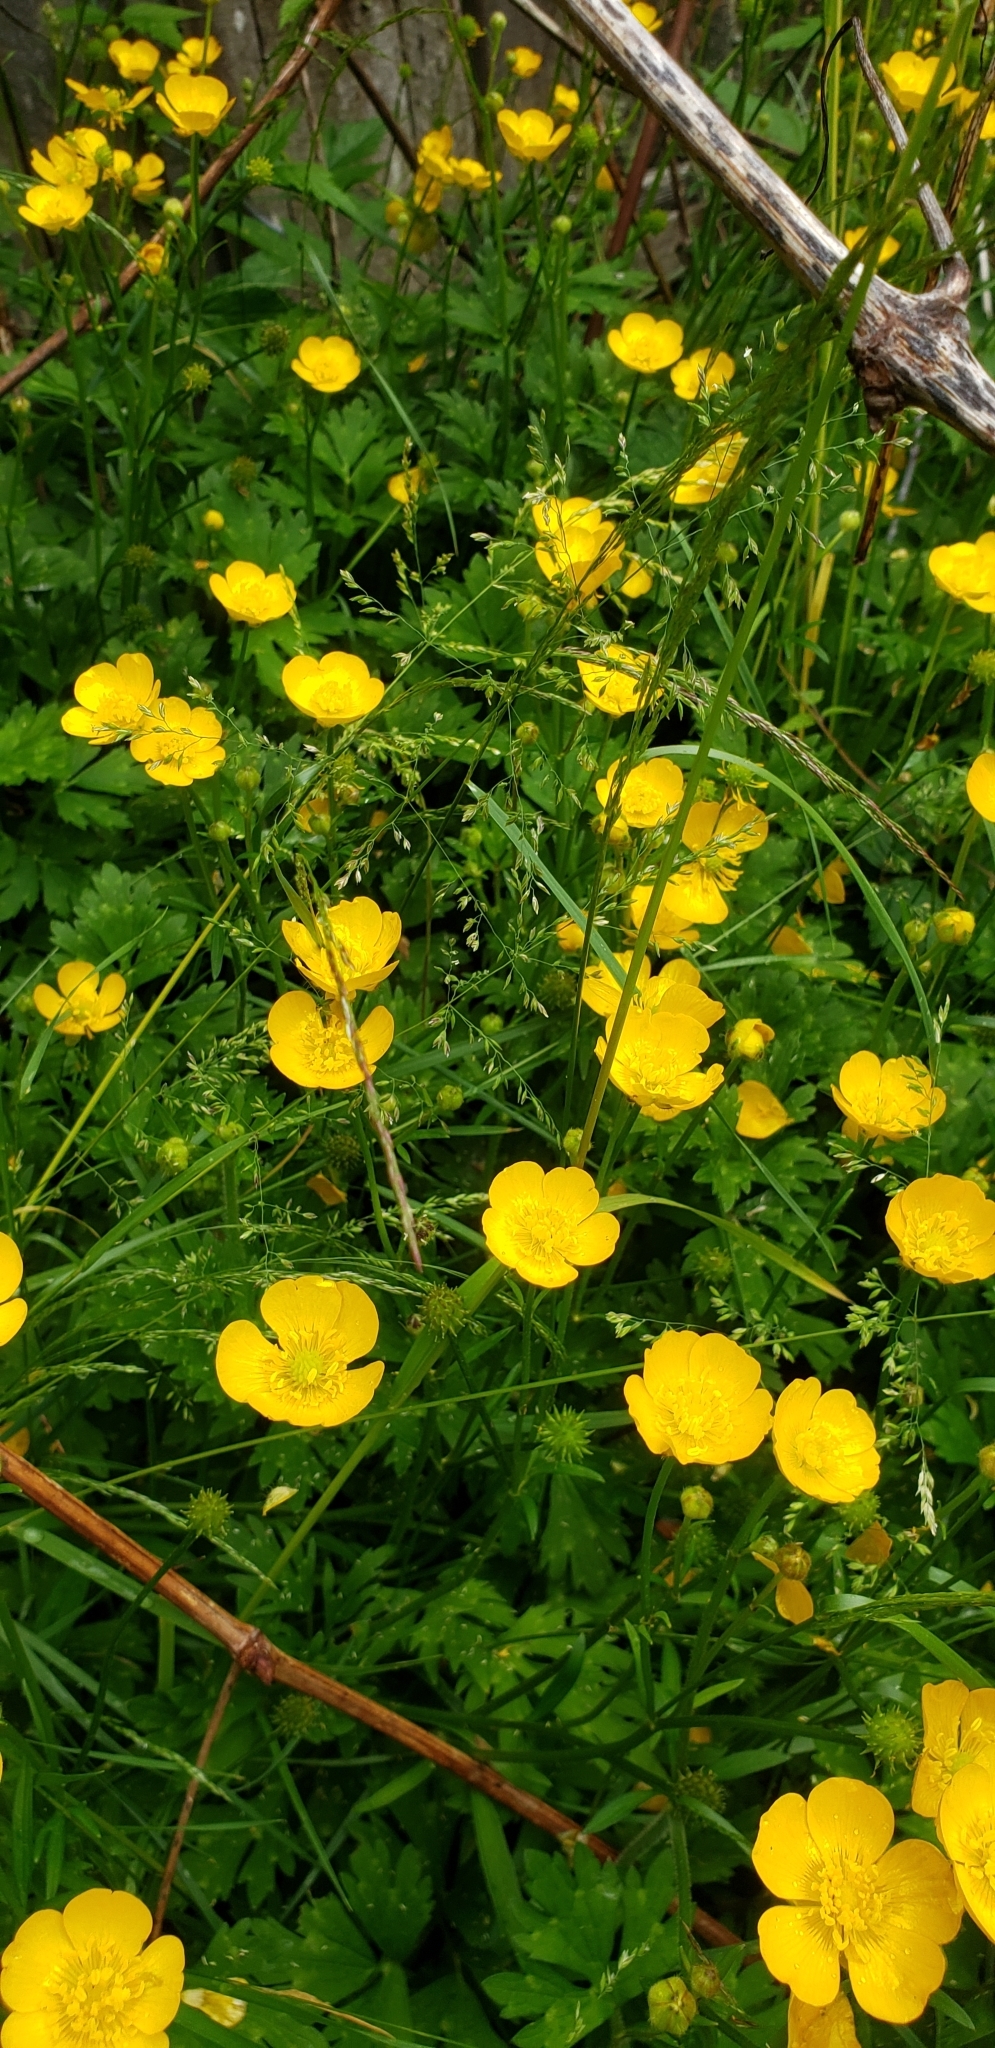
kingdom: Plantae
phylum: Tracheophyta
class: Magnoliopsida
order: Ranunculales
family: Ranunculaceae
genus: Ranunculus
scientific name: Ranunculus repens
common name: Creeping buttercup
